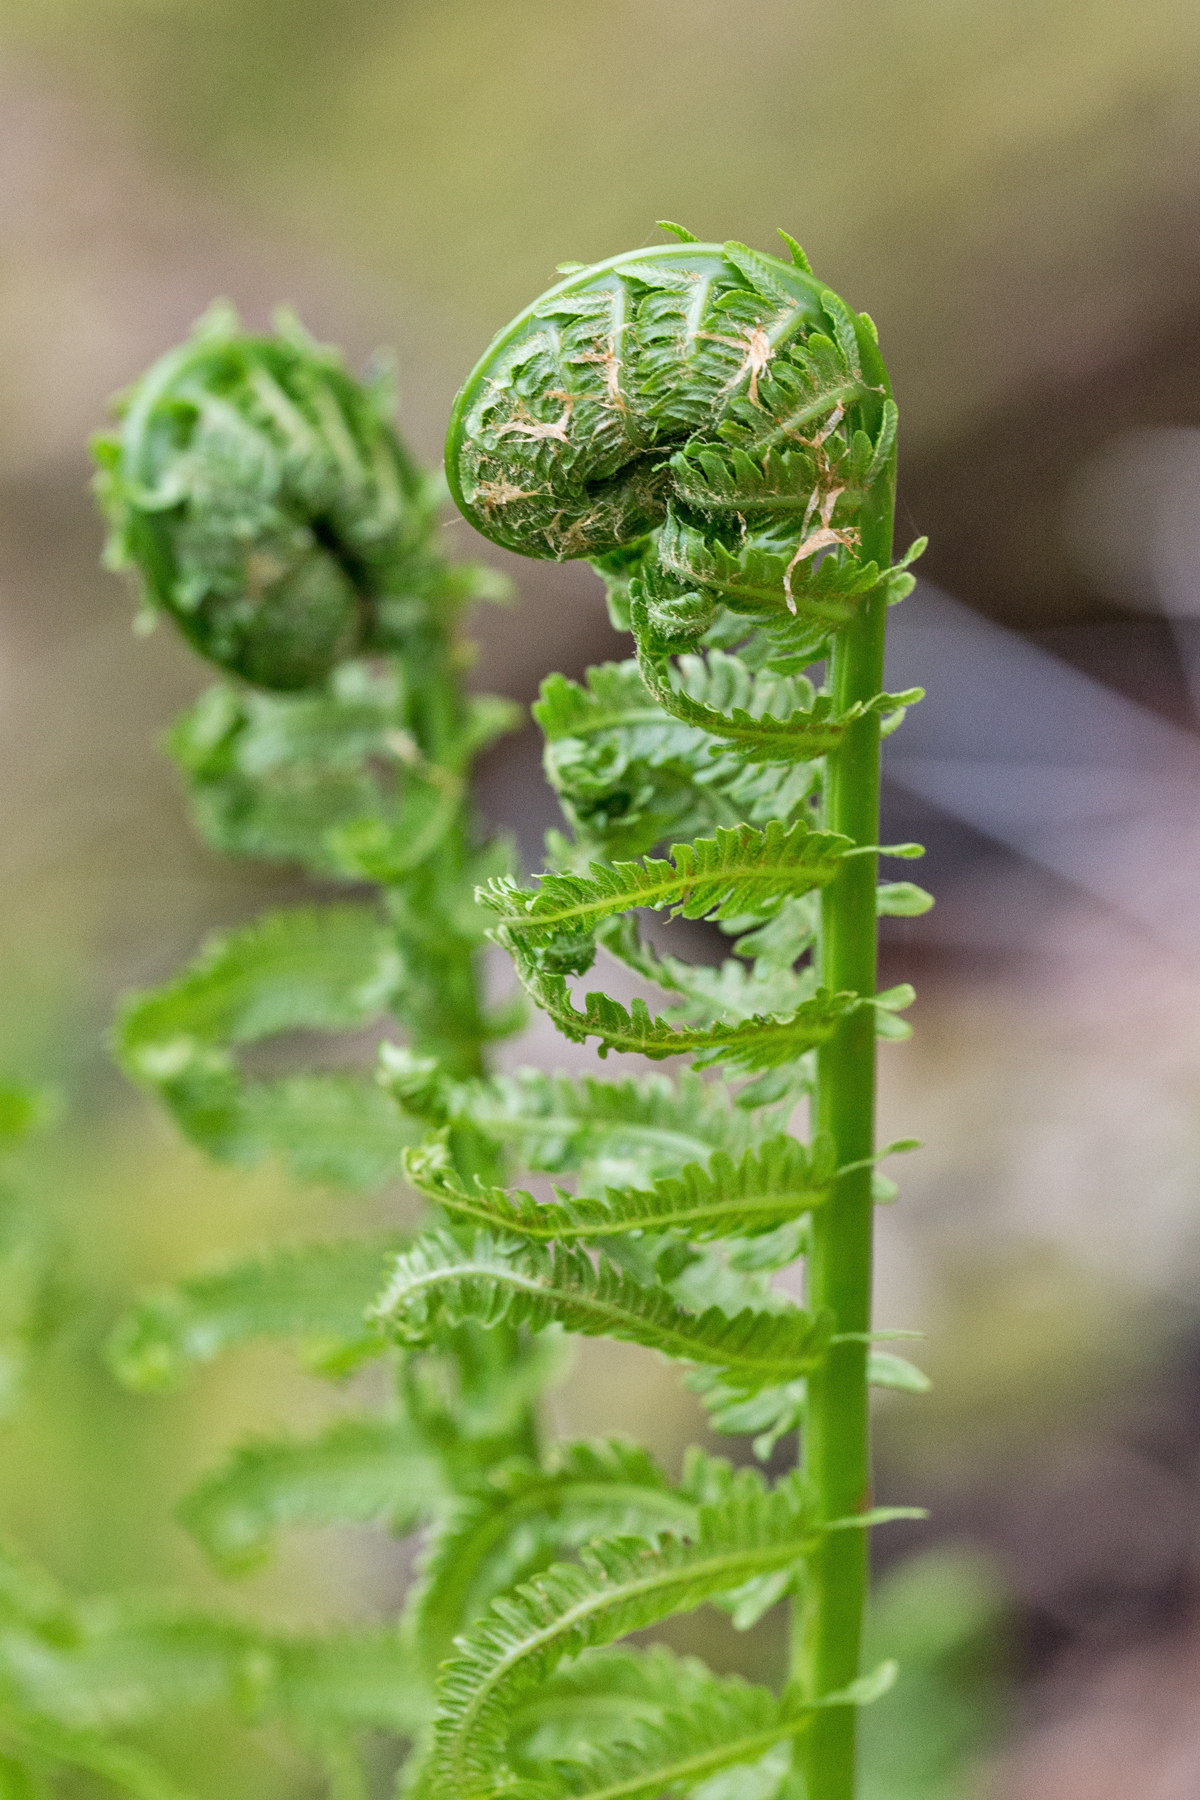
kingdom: Plantae
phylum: Tracheophyta
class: Polypodiopsida
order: Polypodiales
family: Onocleaceae
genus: Matteuccia
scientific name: Matteuccia struthiopteris
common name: Ostrich fern
